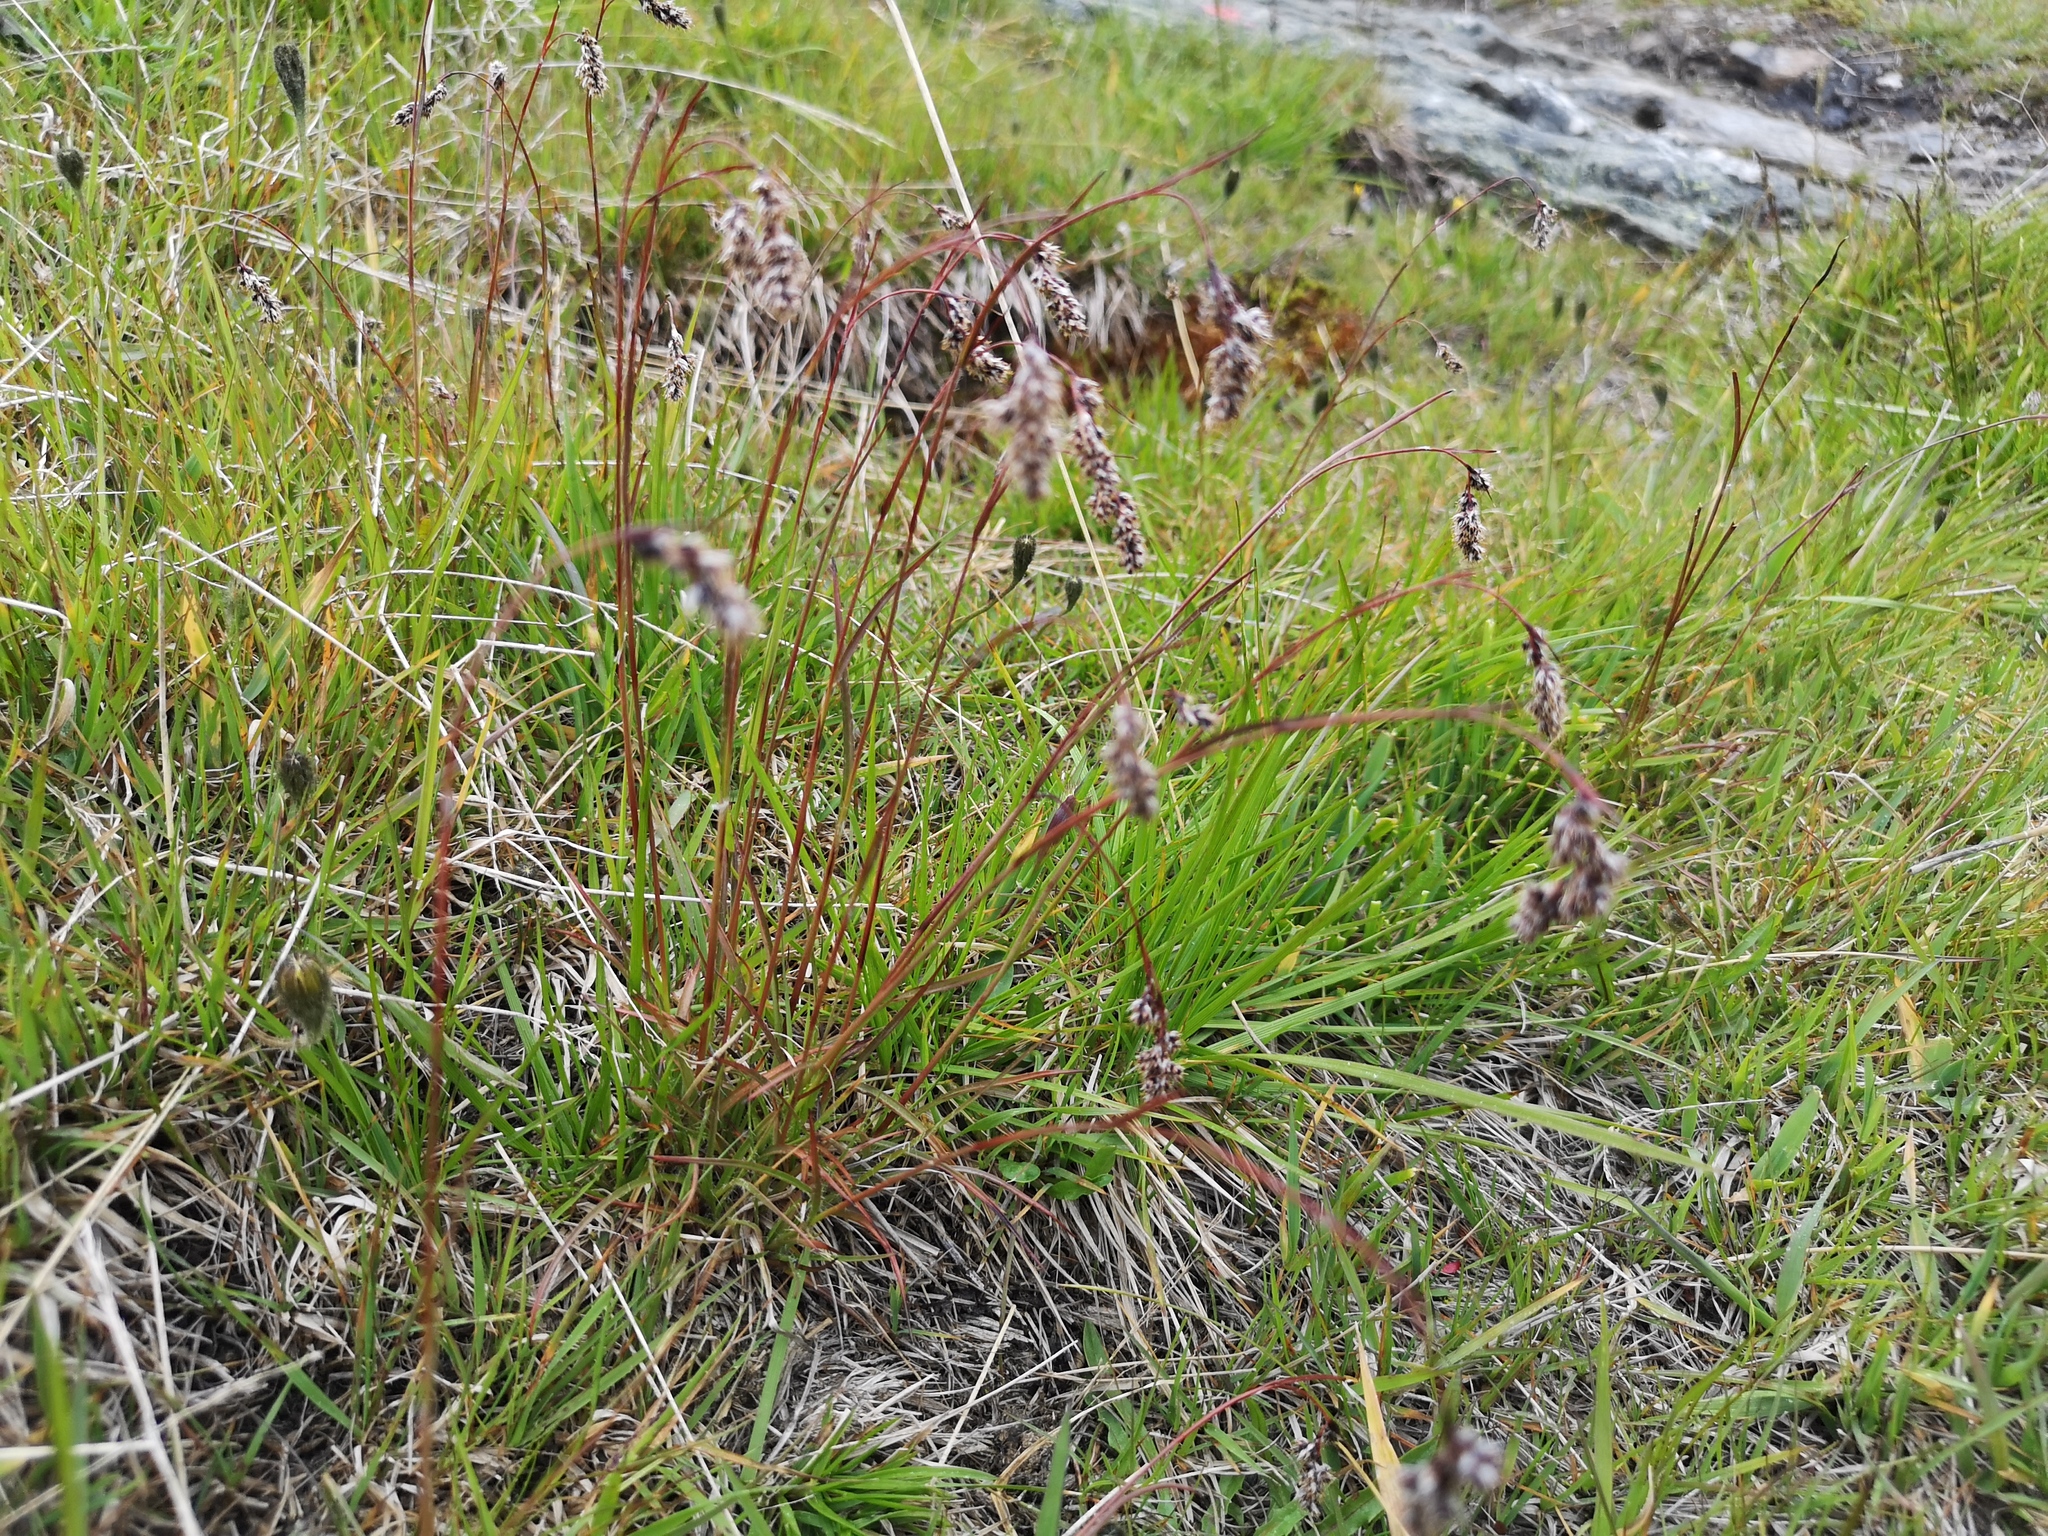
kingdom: Plantae
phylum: Tracheophyta
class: Liliopsida
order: Poales
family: Juncaceae
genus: Luzula
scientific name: Luzula spicata
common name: Spiked wood-rush
